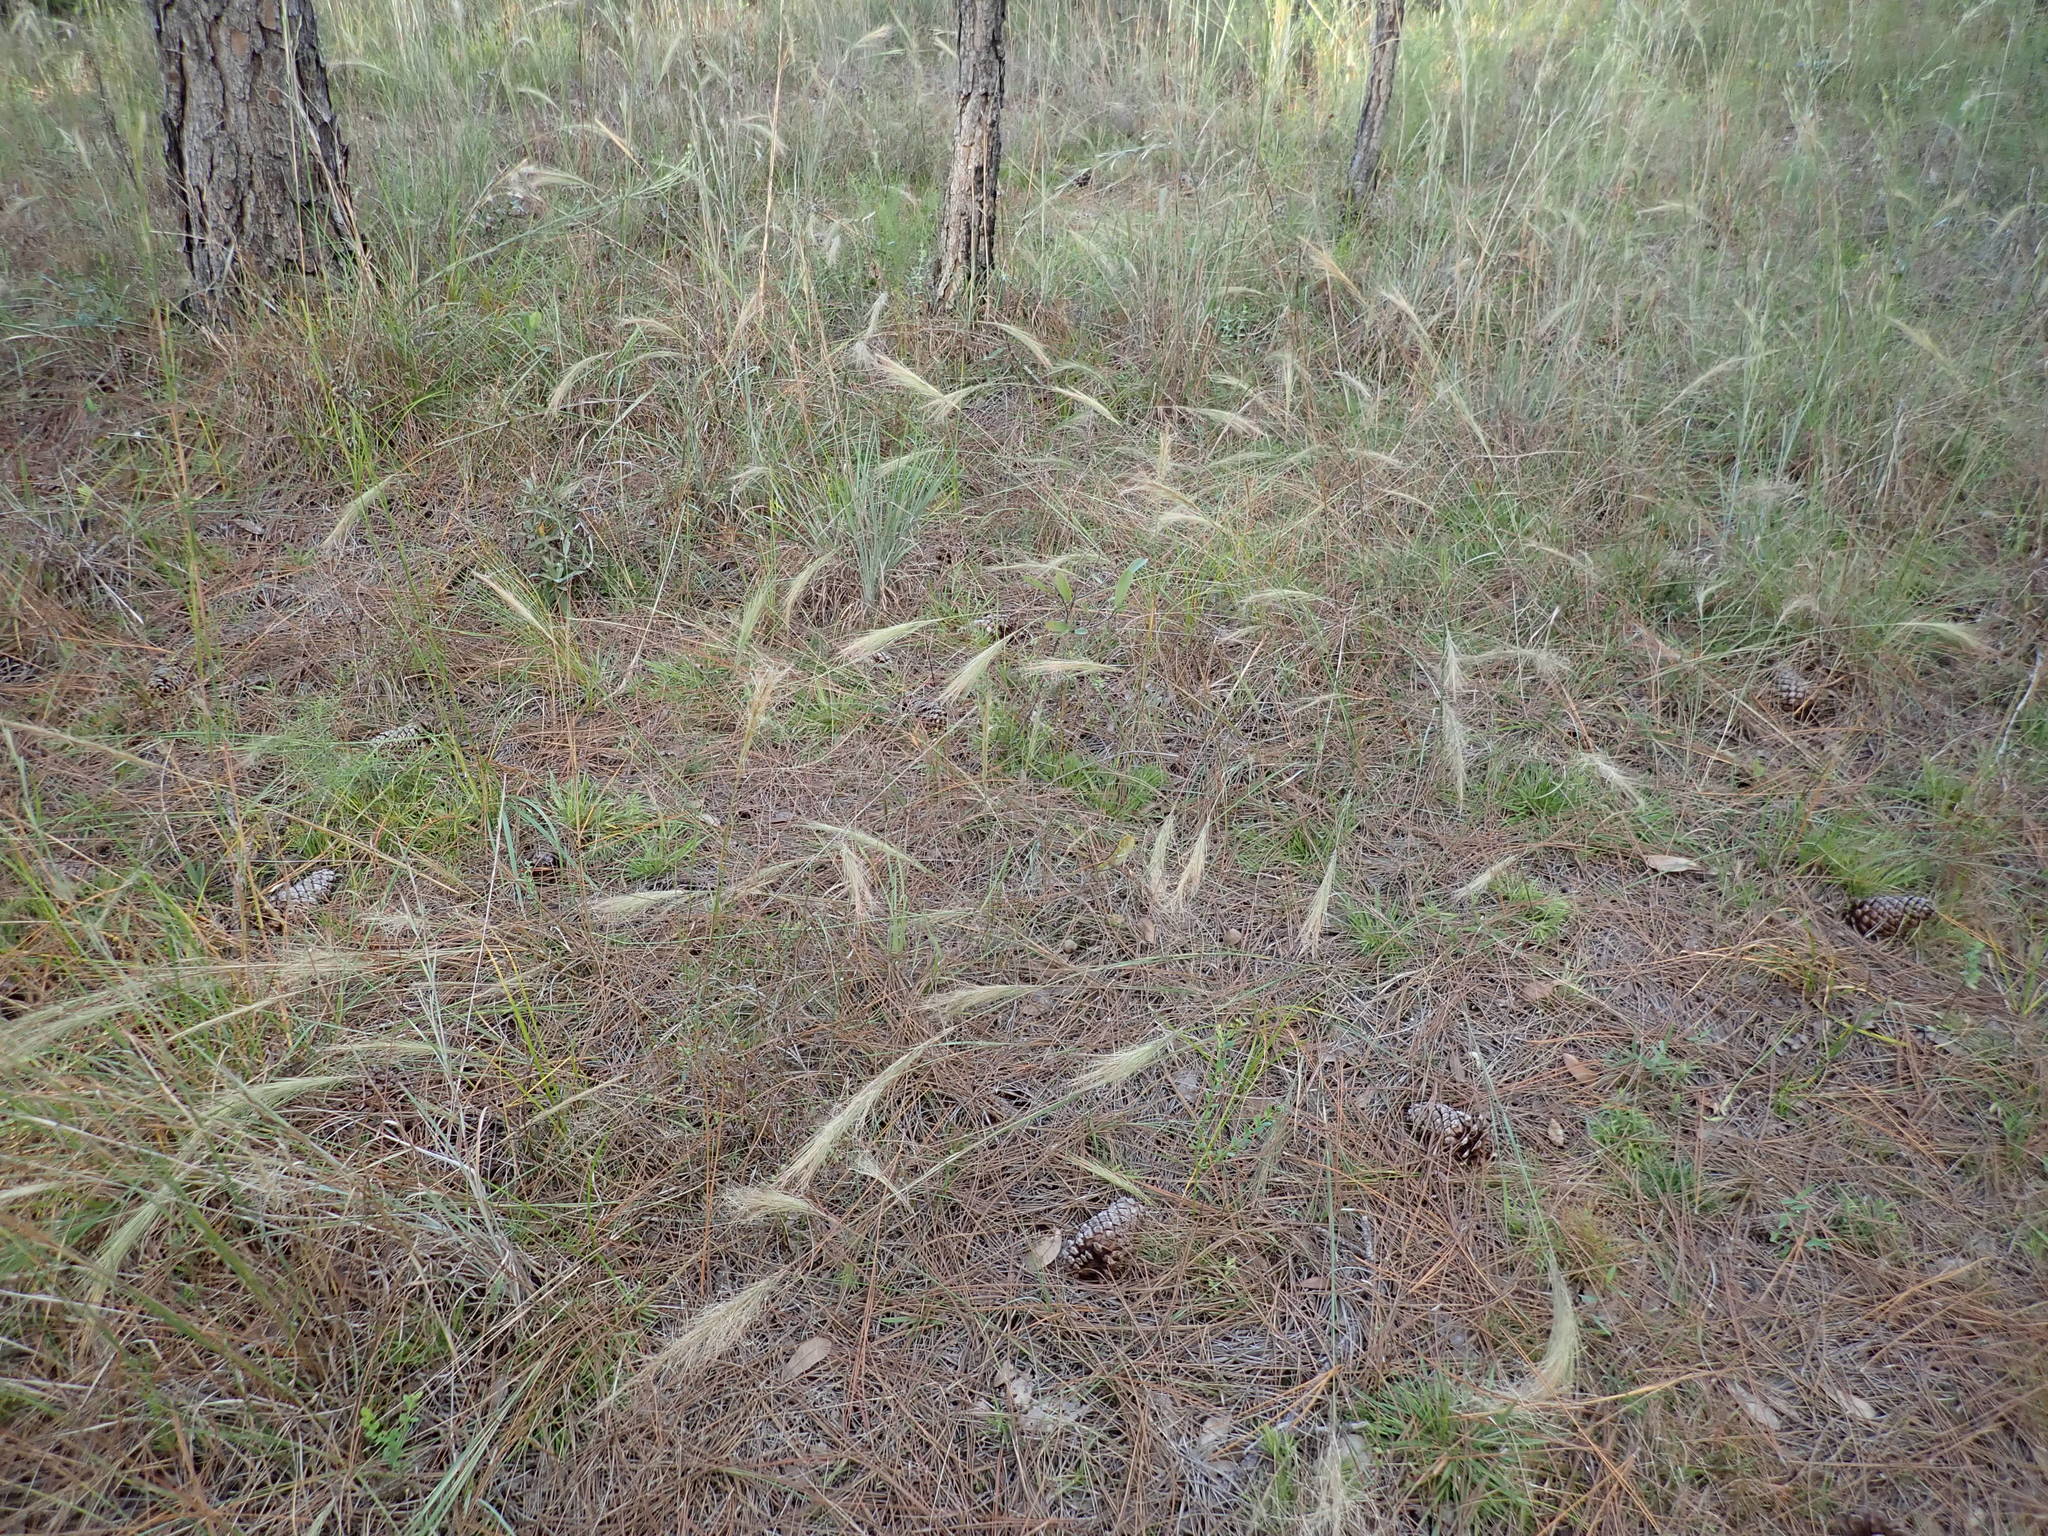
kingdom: Plantae
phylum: Tracheophyta
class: Liliopsida
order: Poales
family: Poaceae
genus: Aristida
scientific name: Aristida spiciformis
